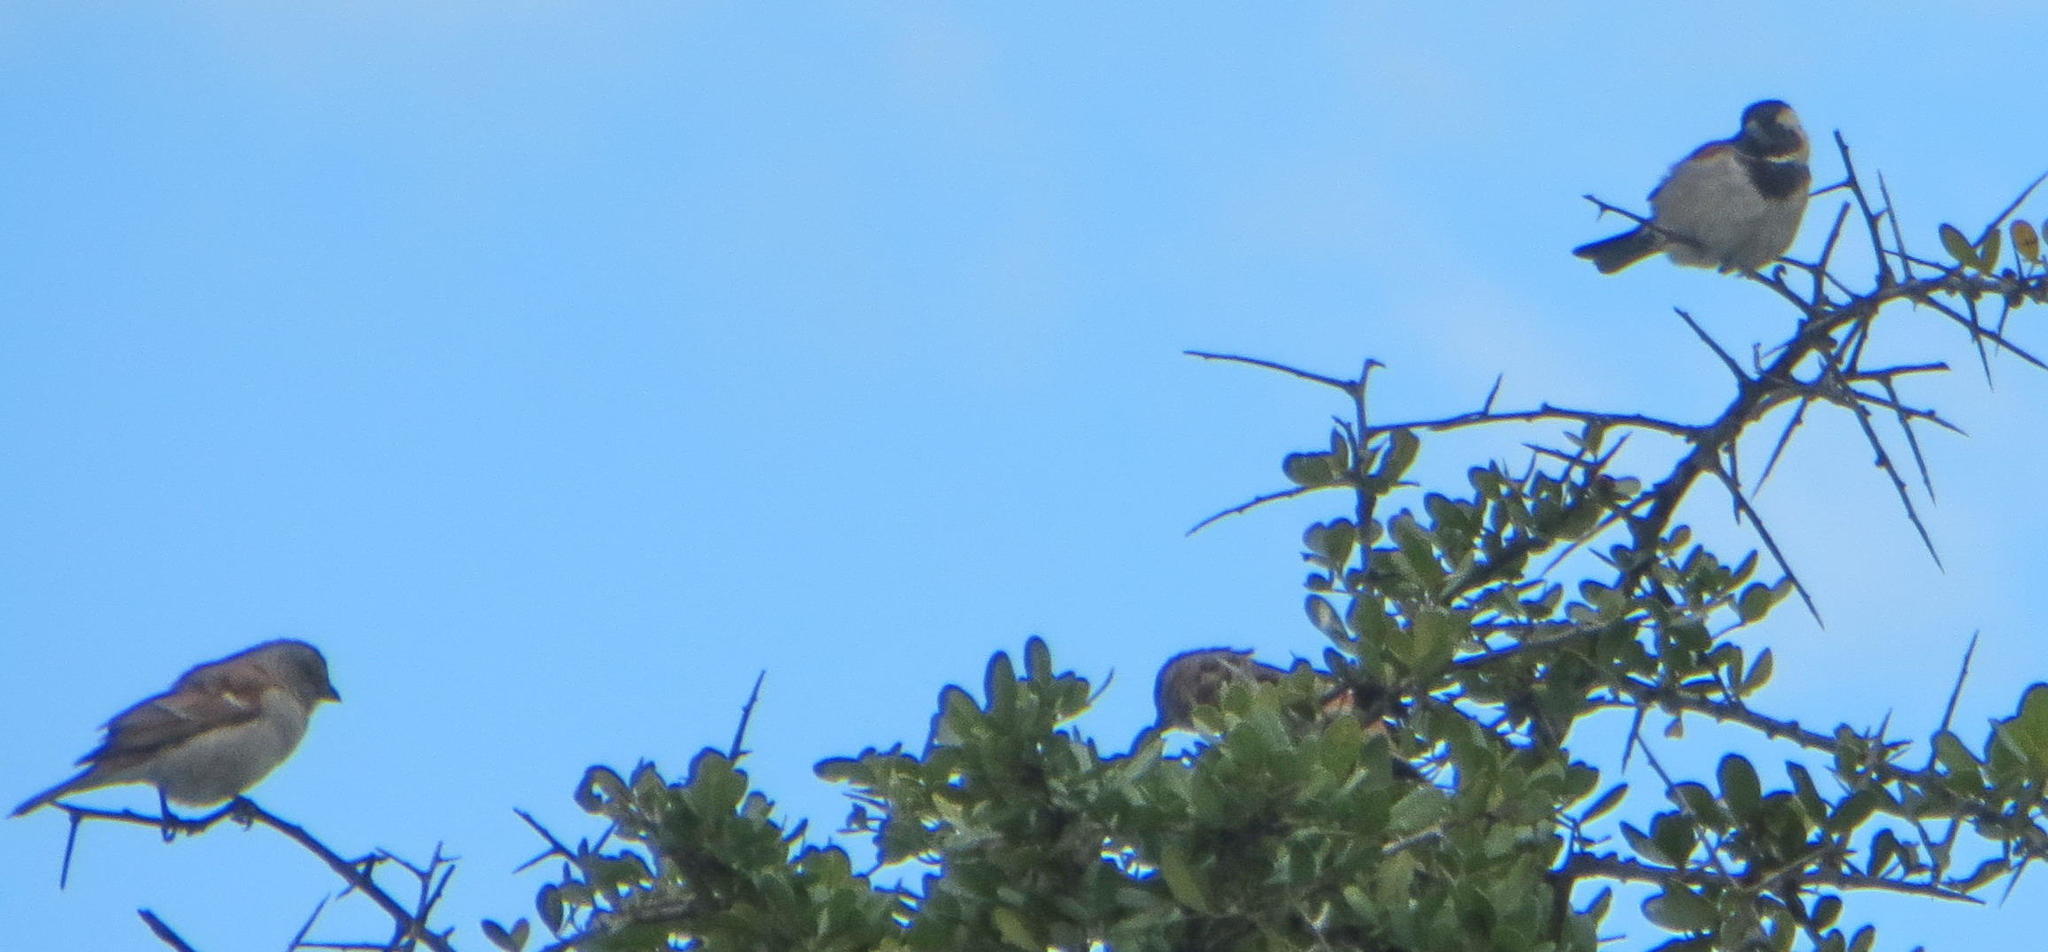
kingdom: Animalia
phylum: Chordata
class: Aves
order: Passeriformes
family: Passeridae
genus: Passer
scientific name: Passer melanurus
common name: Cape sparrow
